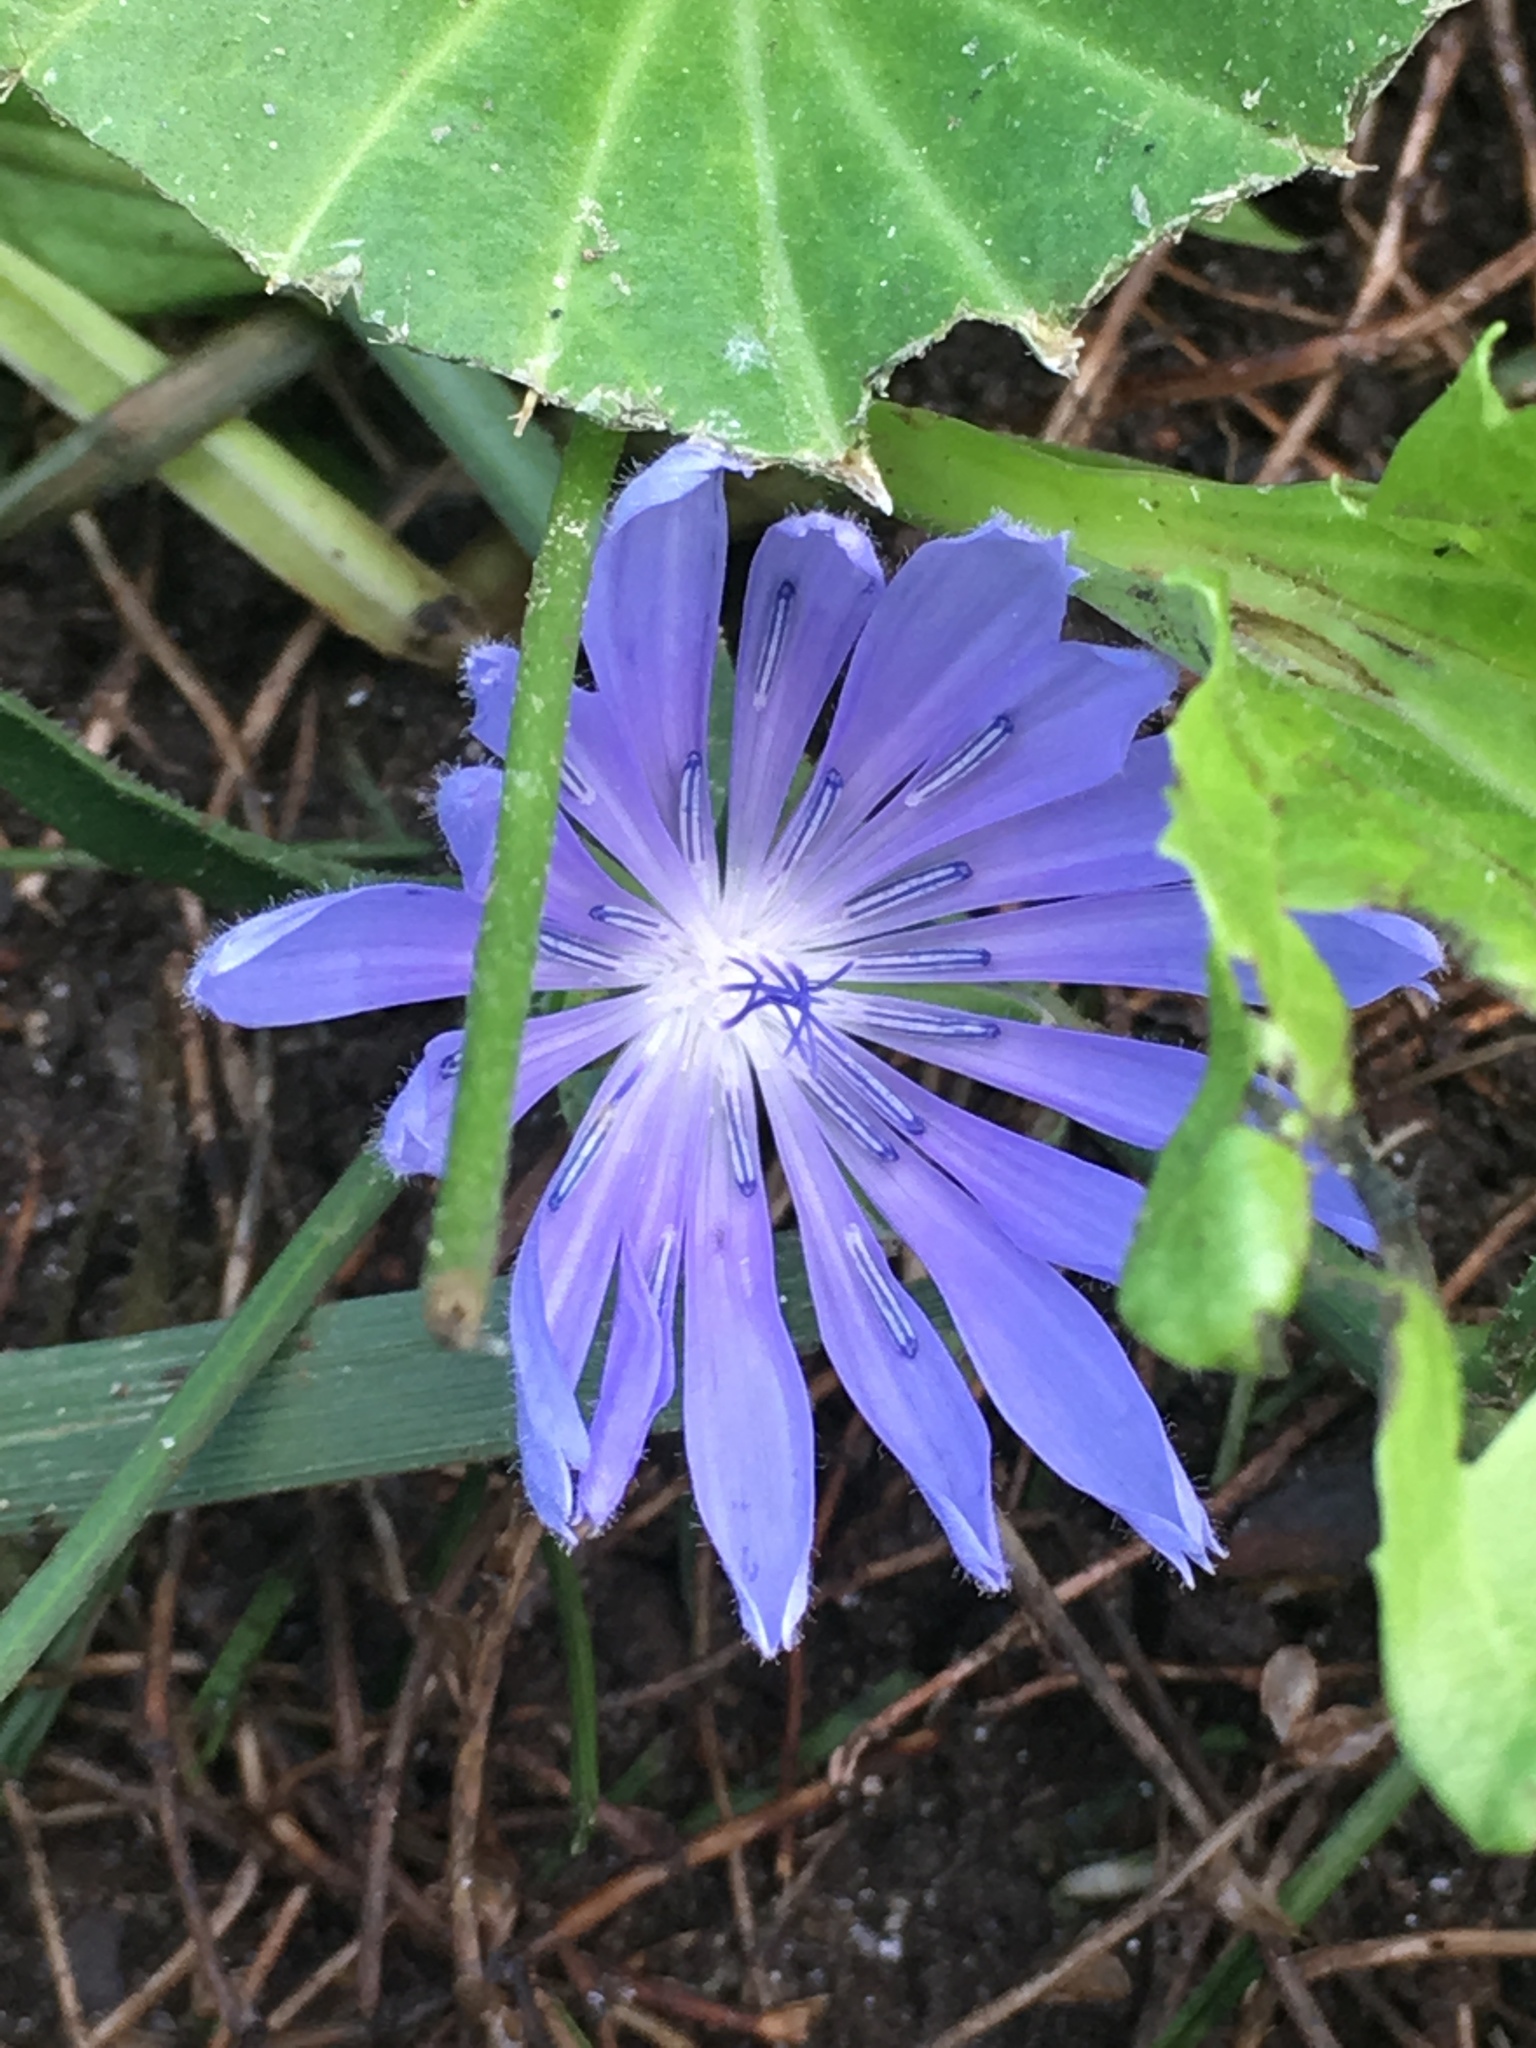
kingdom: Plantae
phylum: Tracheophyta
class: Magnoliopsida
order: Asterales
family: Asteraceae
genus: Cichorium
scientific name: Cichorium intybus
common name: Chicory
